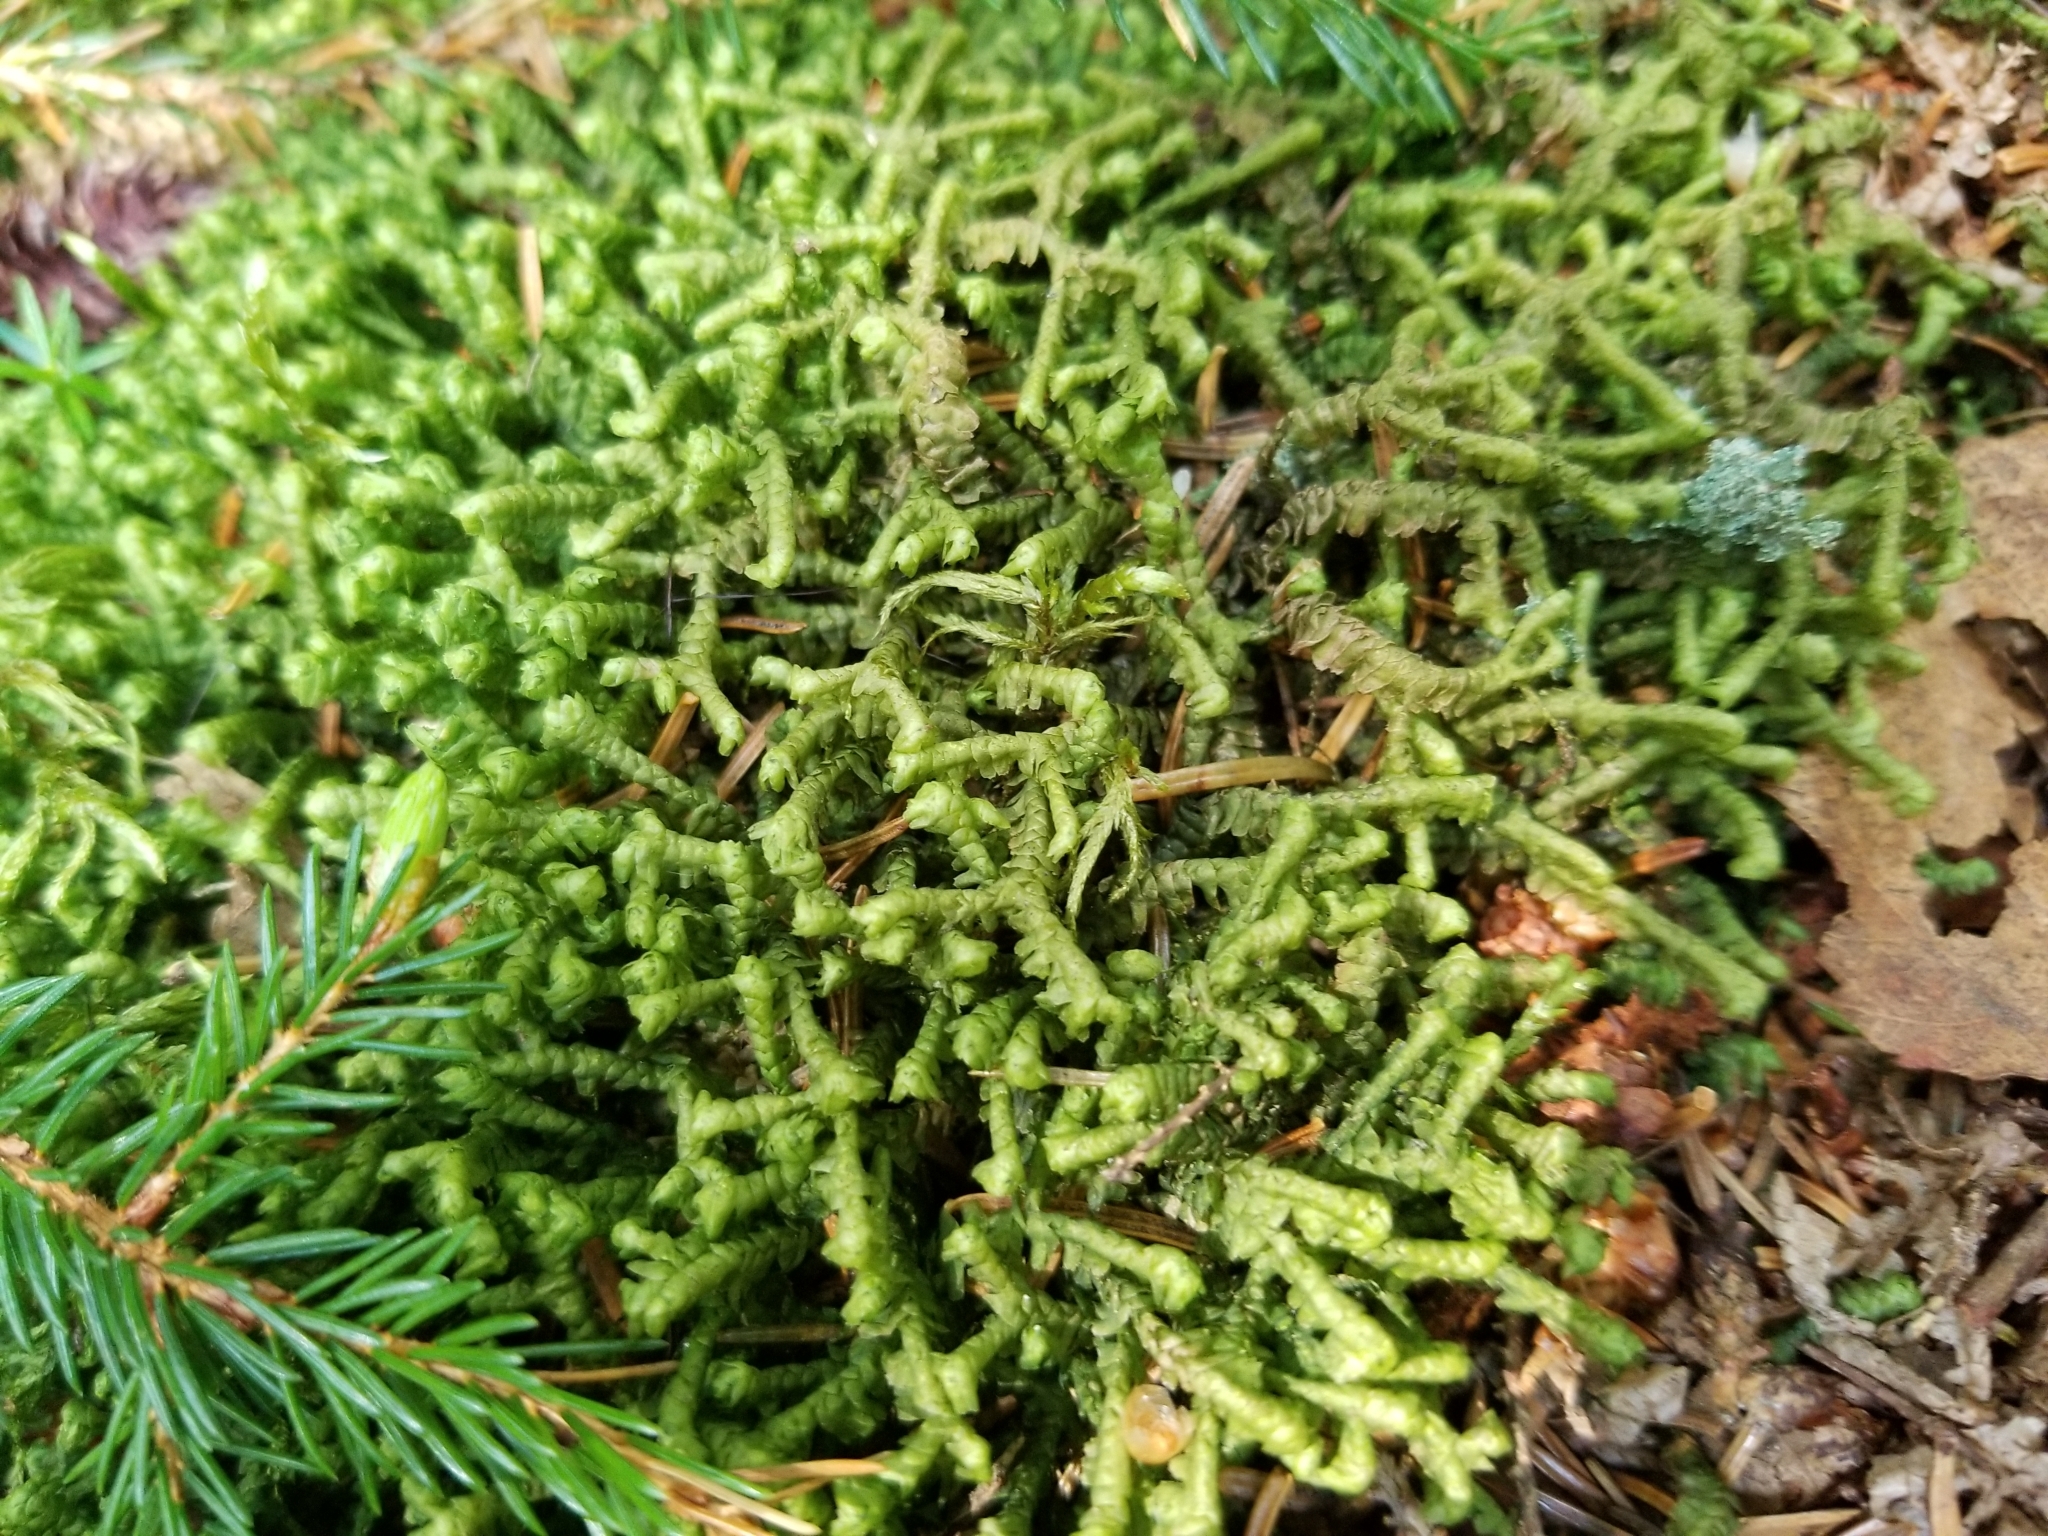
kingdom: Plantae
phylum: Marchantiophyta
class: Jungermanniopsida
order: Jungermanniales
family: Lepidoziaceae
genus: Bazzania
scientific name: Bazzania trilobata
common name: Three-lobed whipwort
